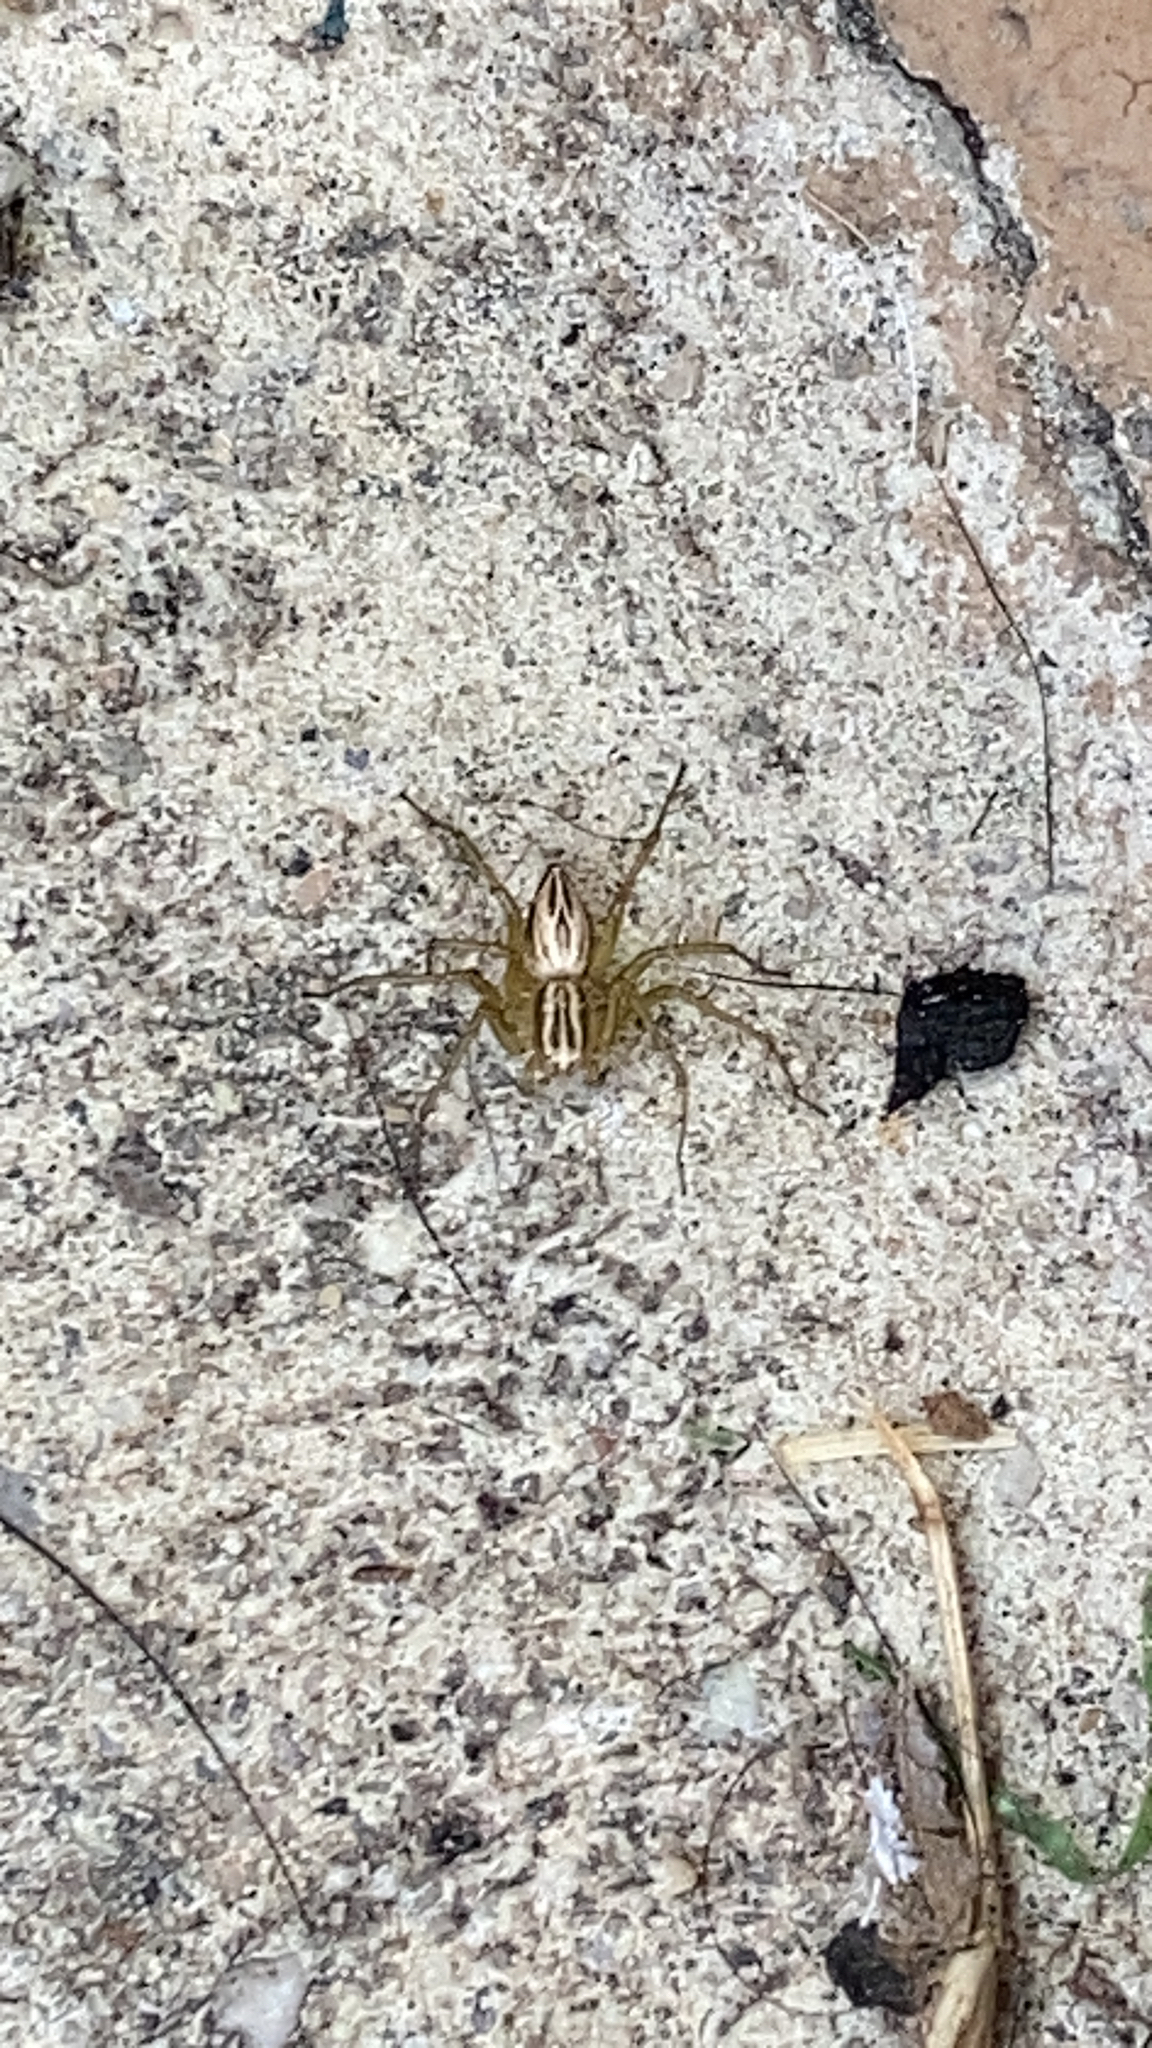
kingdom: Animalia
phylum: Arthropoda
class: Arachnida
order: Araneae
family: Oxyopidae
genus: Oxyopes
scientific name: Oxyopes salticus
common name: Lynx spiders
